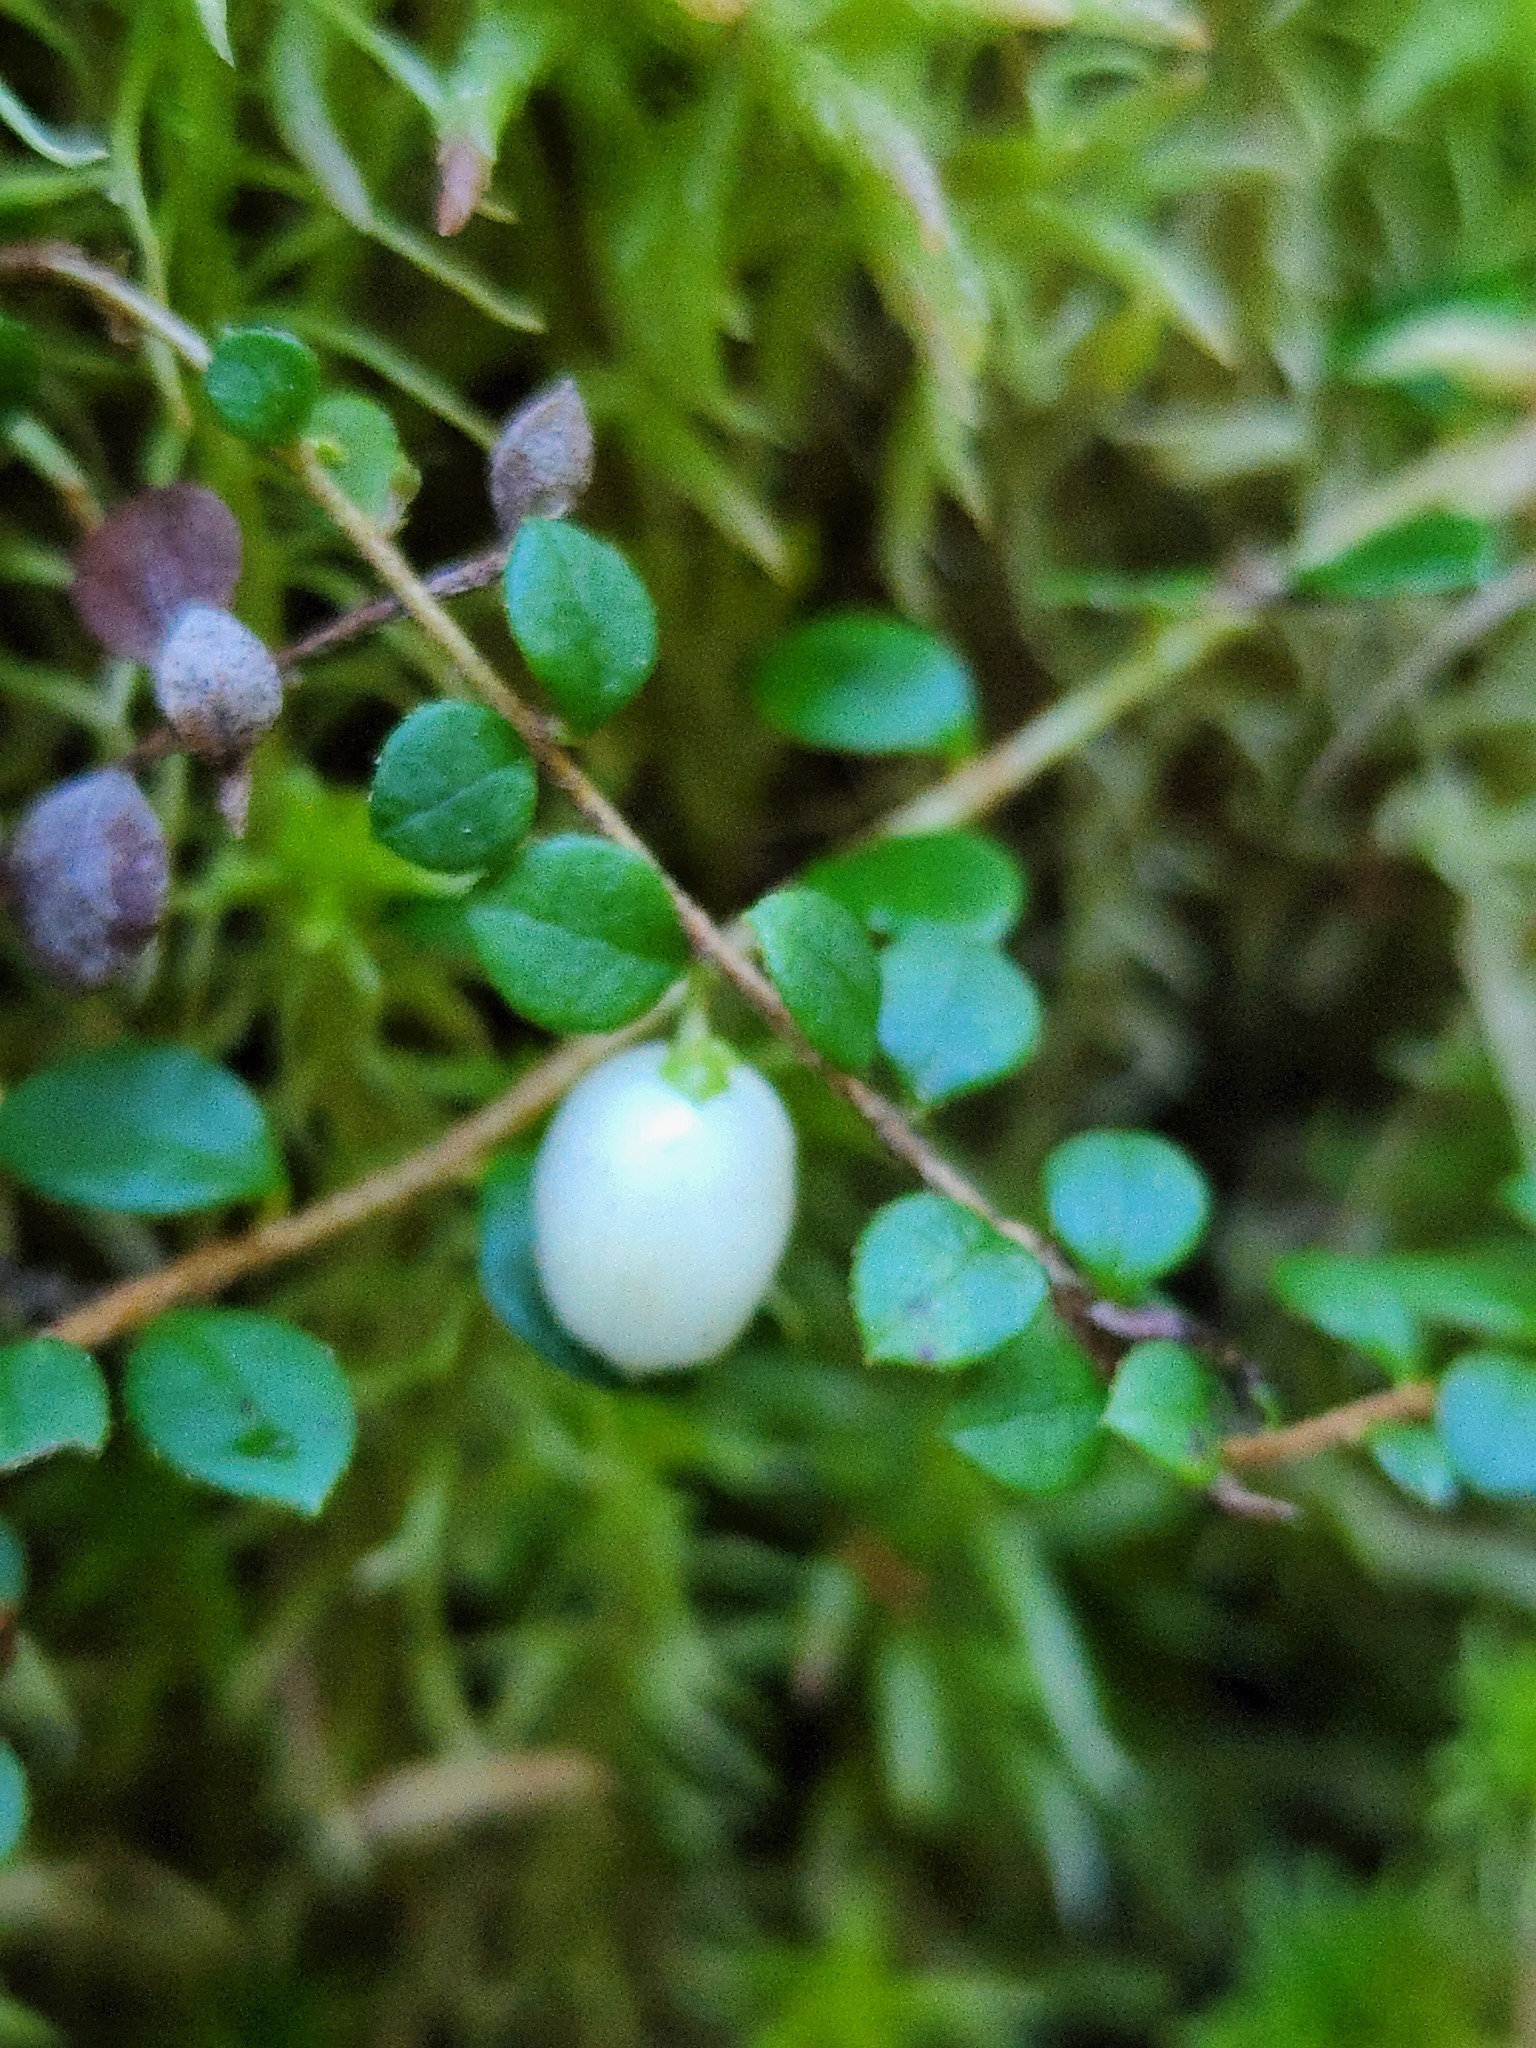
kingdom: Plantae
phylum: Tracheophyta
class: Magnoliopsida
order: Ericales
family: Ericaceae
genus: Gaultheria
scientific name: Gaultheria hispidula
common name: Cancer wintergreen
